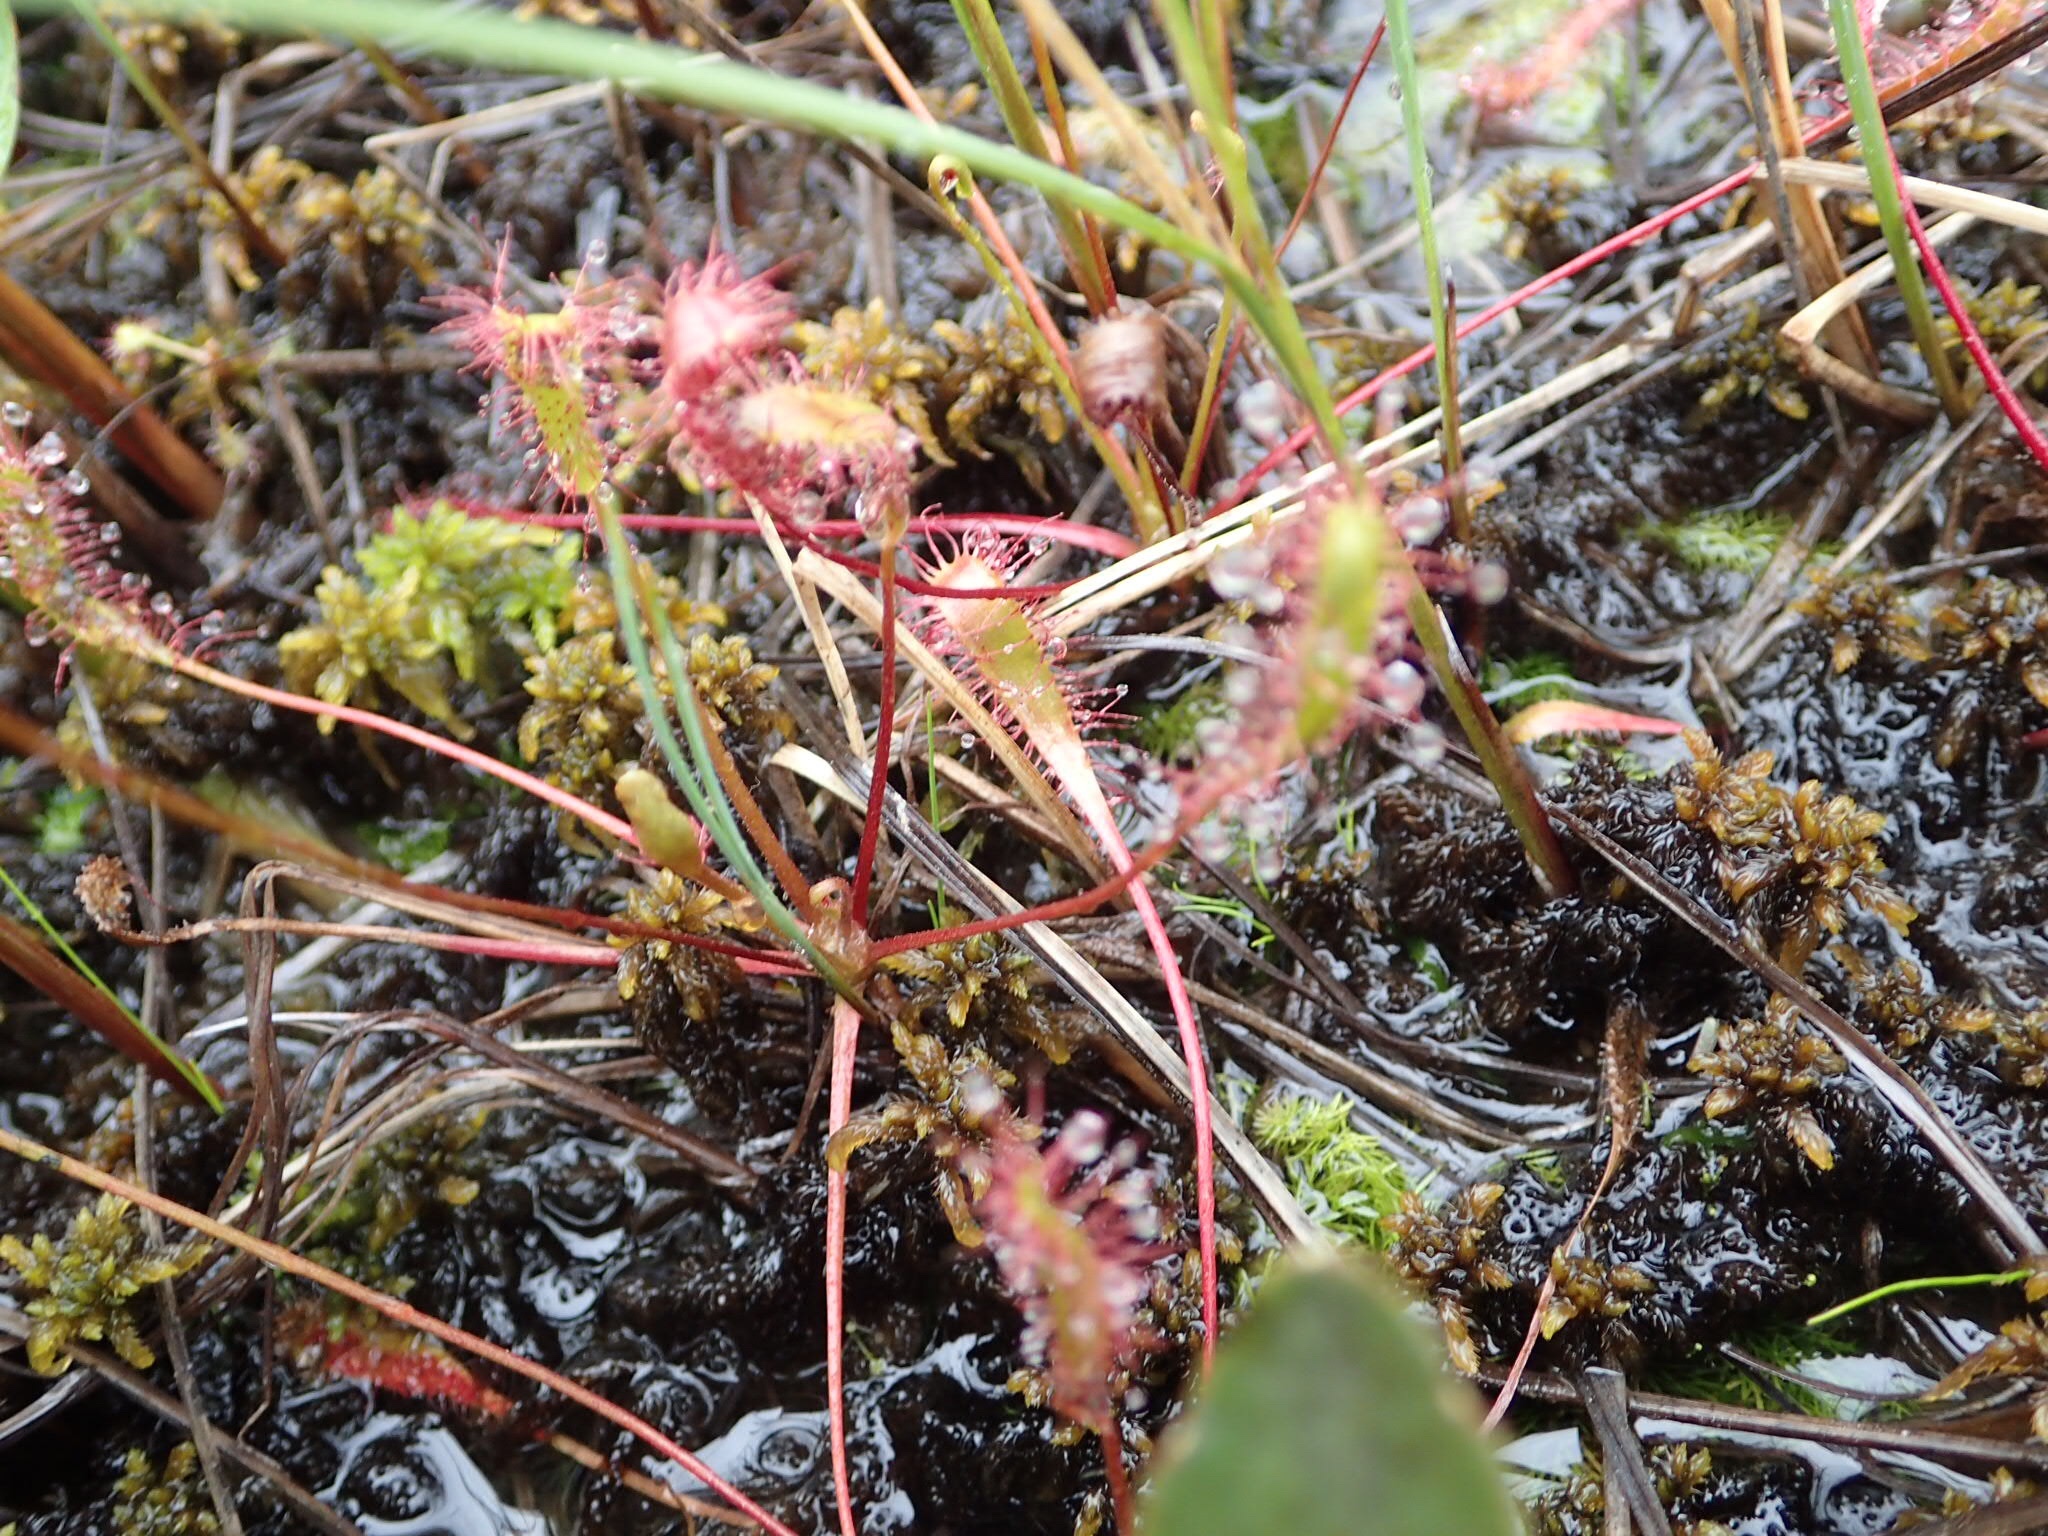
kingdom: Plantae
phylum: Tracheophyta
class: Magnoliopsida
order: Caryophyllales
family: Droseraceae
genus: Drosera
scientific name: Drosera anglica
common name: Great sundew
